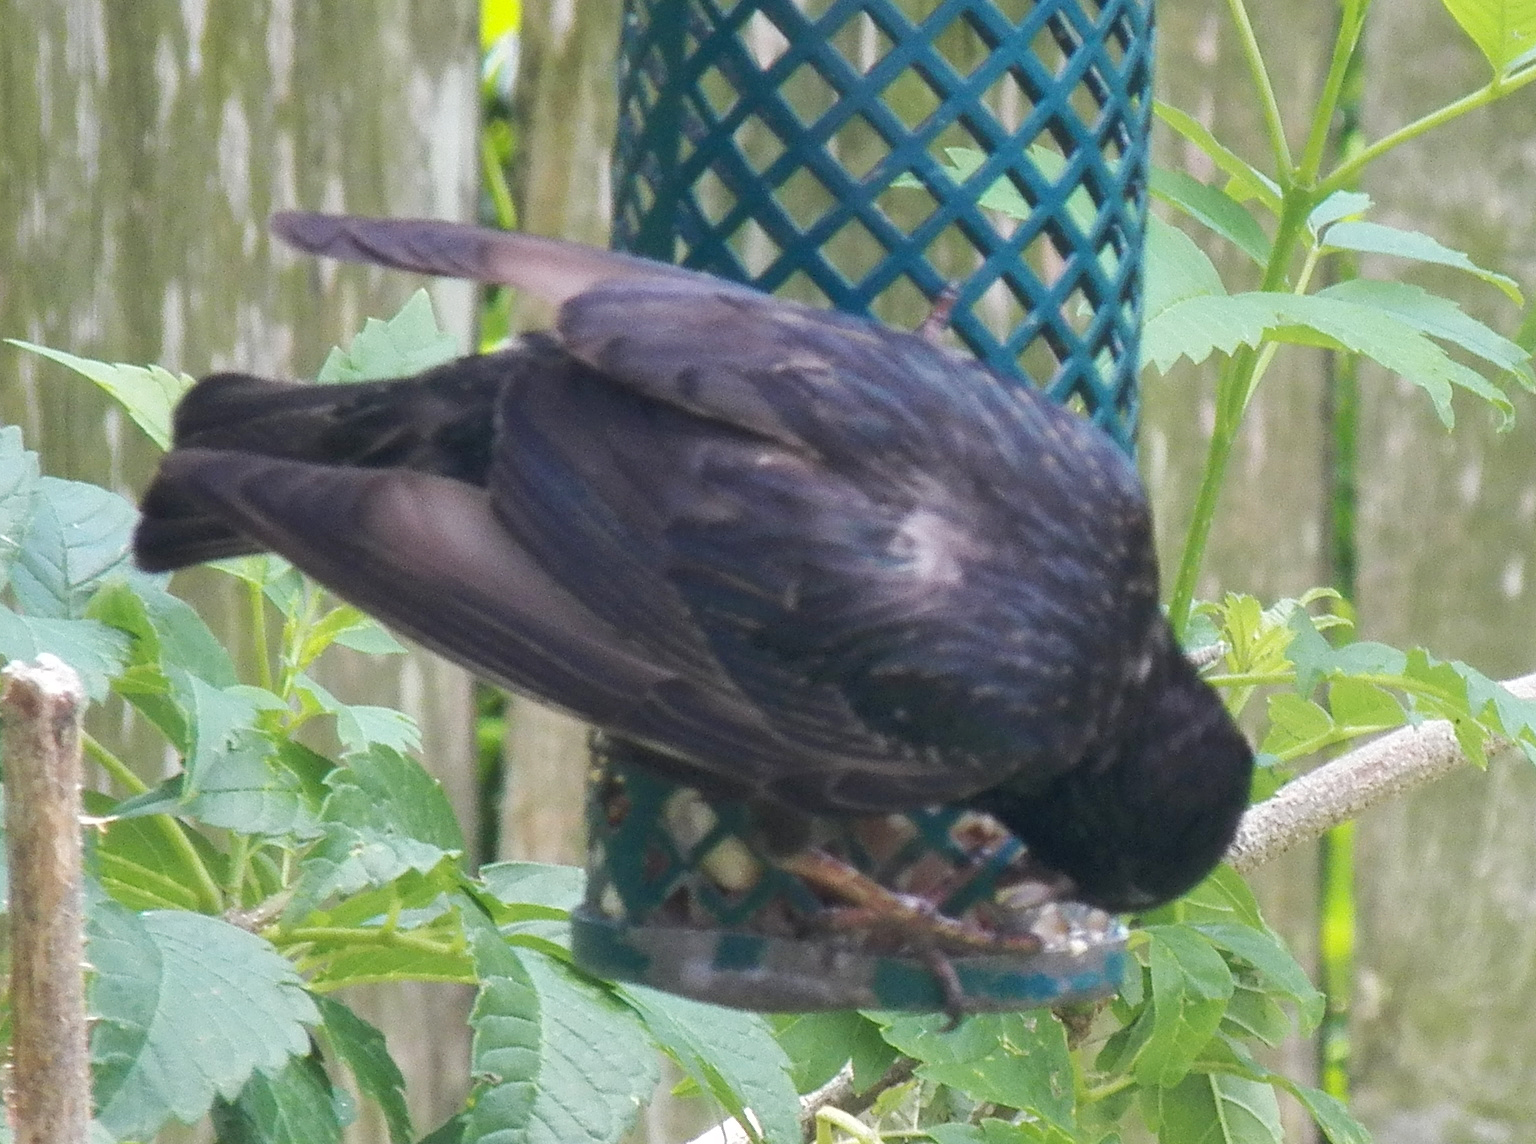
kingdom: Animalia
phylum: Chordata
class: Aves
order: Passeriformes
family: Sturnidae
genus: Sturnus
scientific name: Sturnus vulgaris
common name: Common starling
